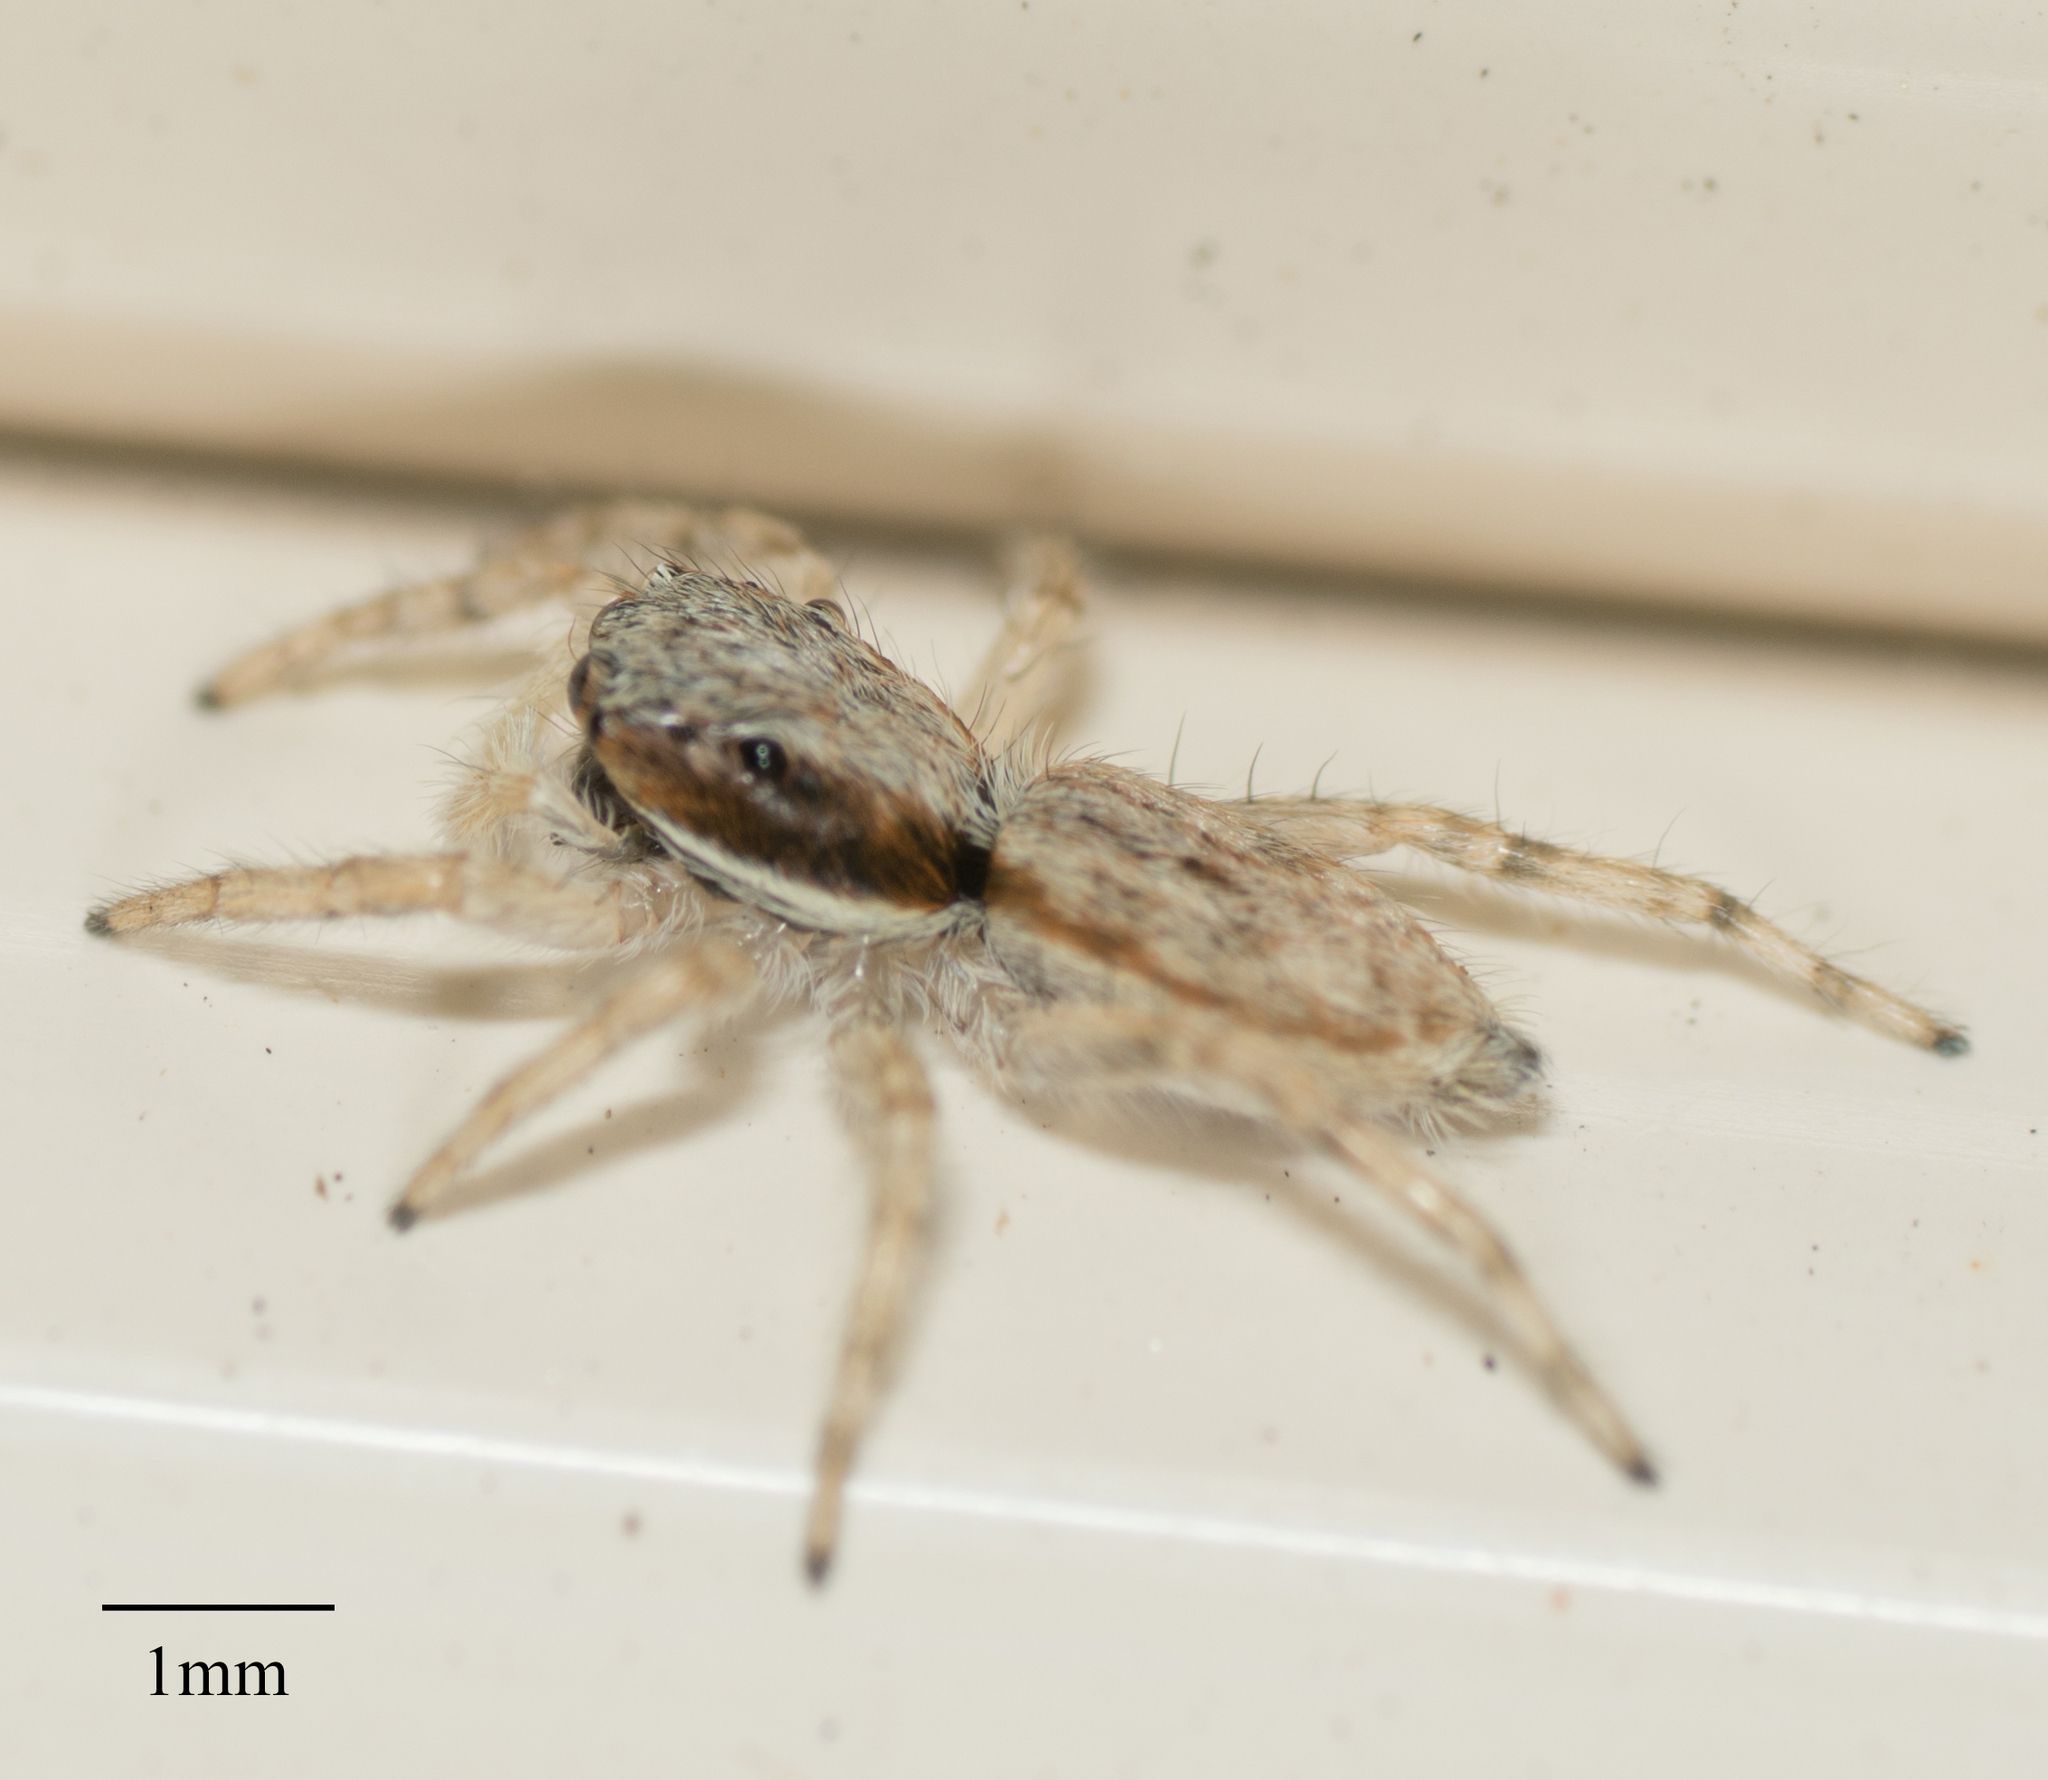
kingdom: Animalia
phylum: Arthropoda
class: Arachnida
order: Araneae
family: Salticidae
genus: Menemerus
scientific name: Menemerus bivittatus
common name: Gray wall jumper
